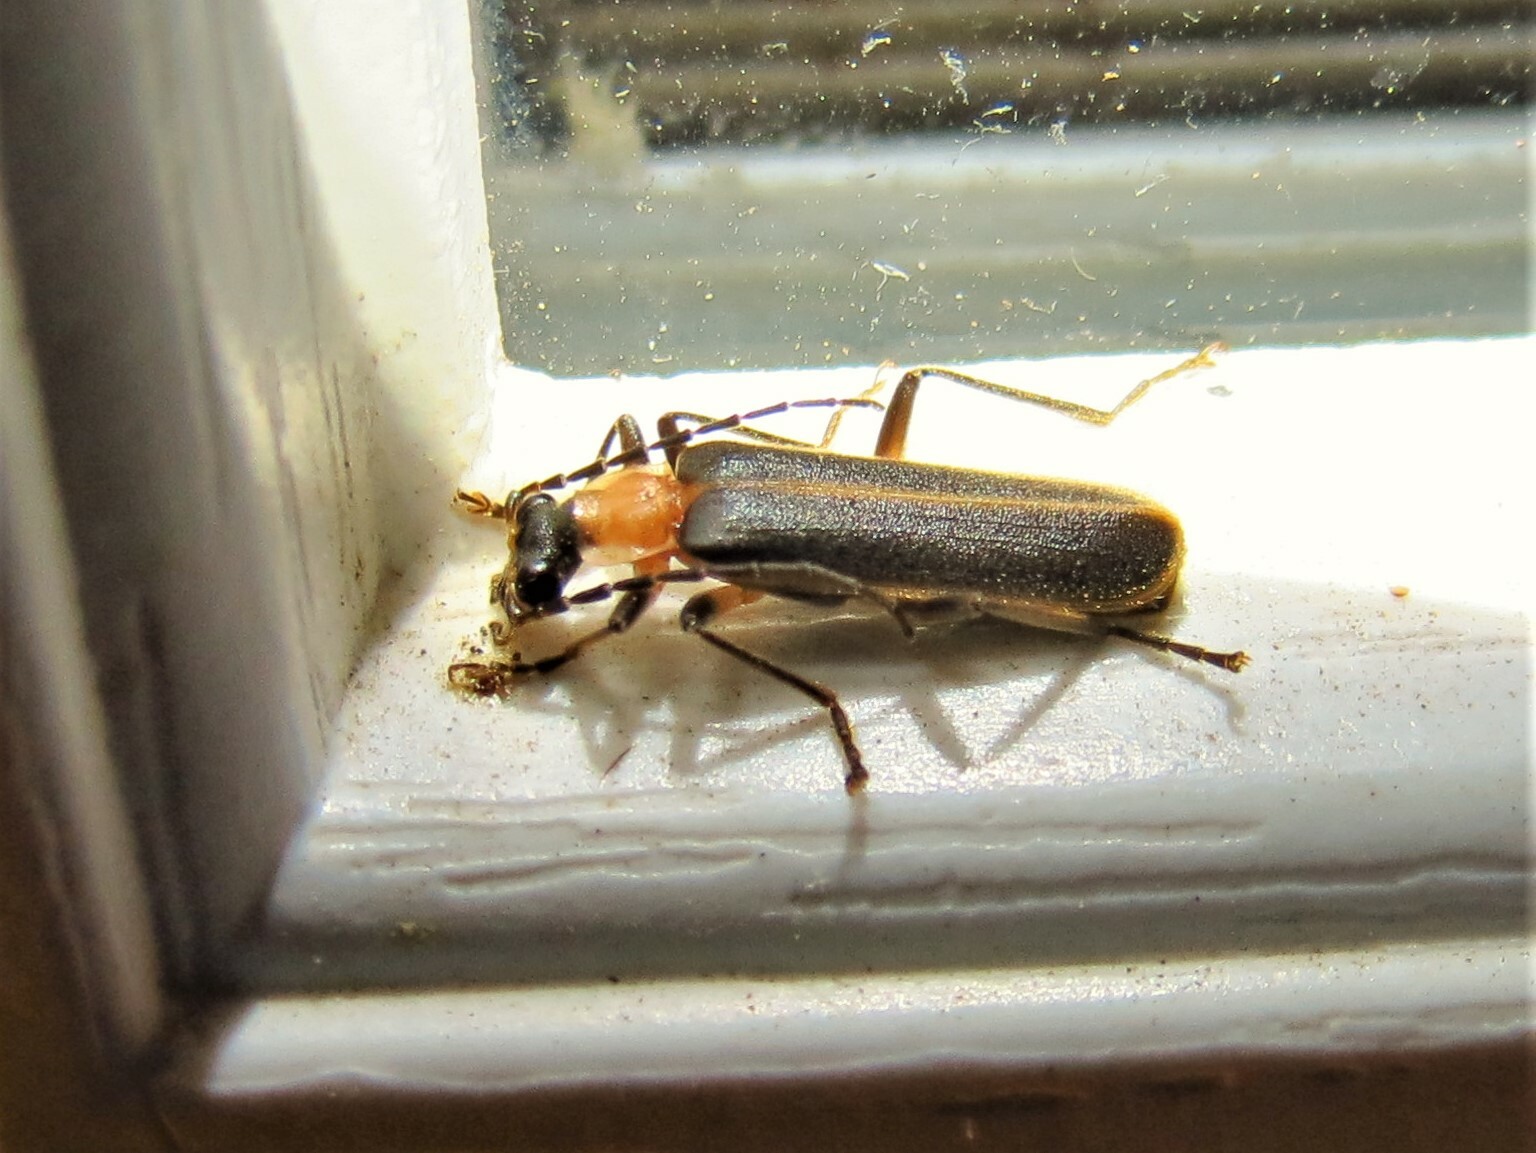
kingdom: Animalia
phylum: Arthropoda
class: Insecta
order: Coleoptera
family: Cantharidae
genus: Podabrus
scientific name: Podabrus flavicollis
